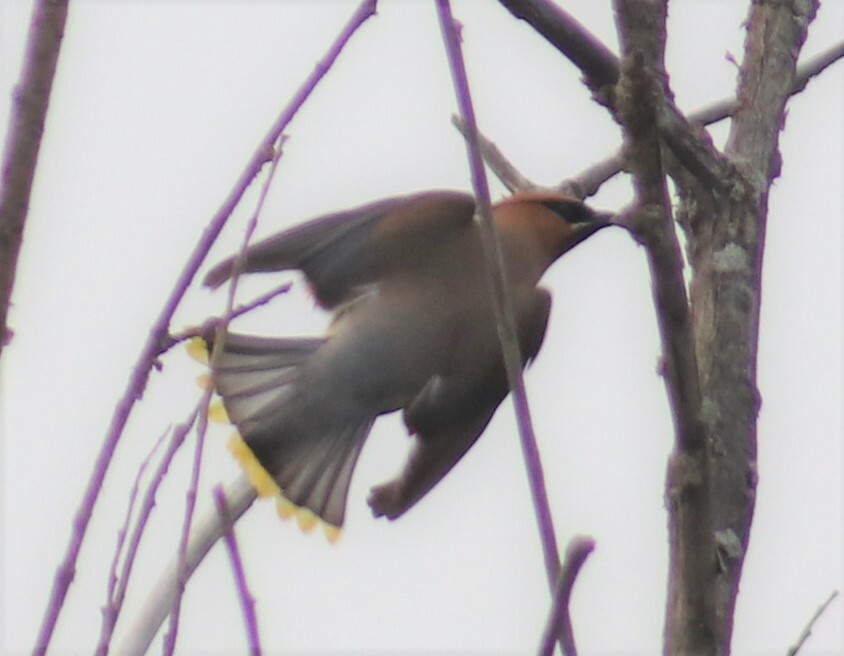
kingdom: Animalia
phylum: Chordata
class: Aves
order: Passeriformes
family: Bombycillidae
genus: Bombycilla
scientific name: Bombycilla cedrorum
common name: Cedar waxwing
